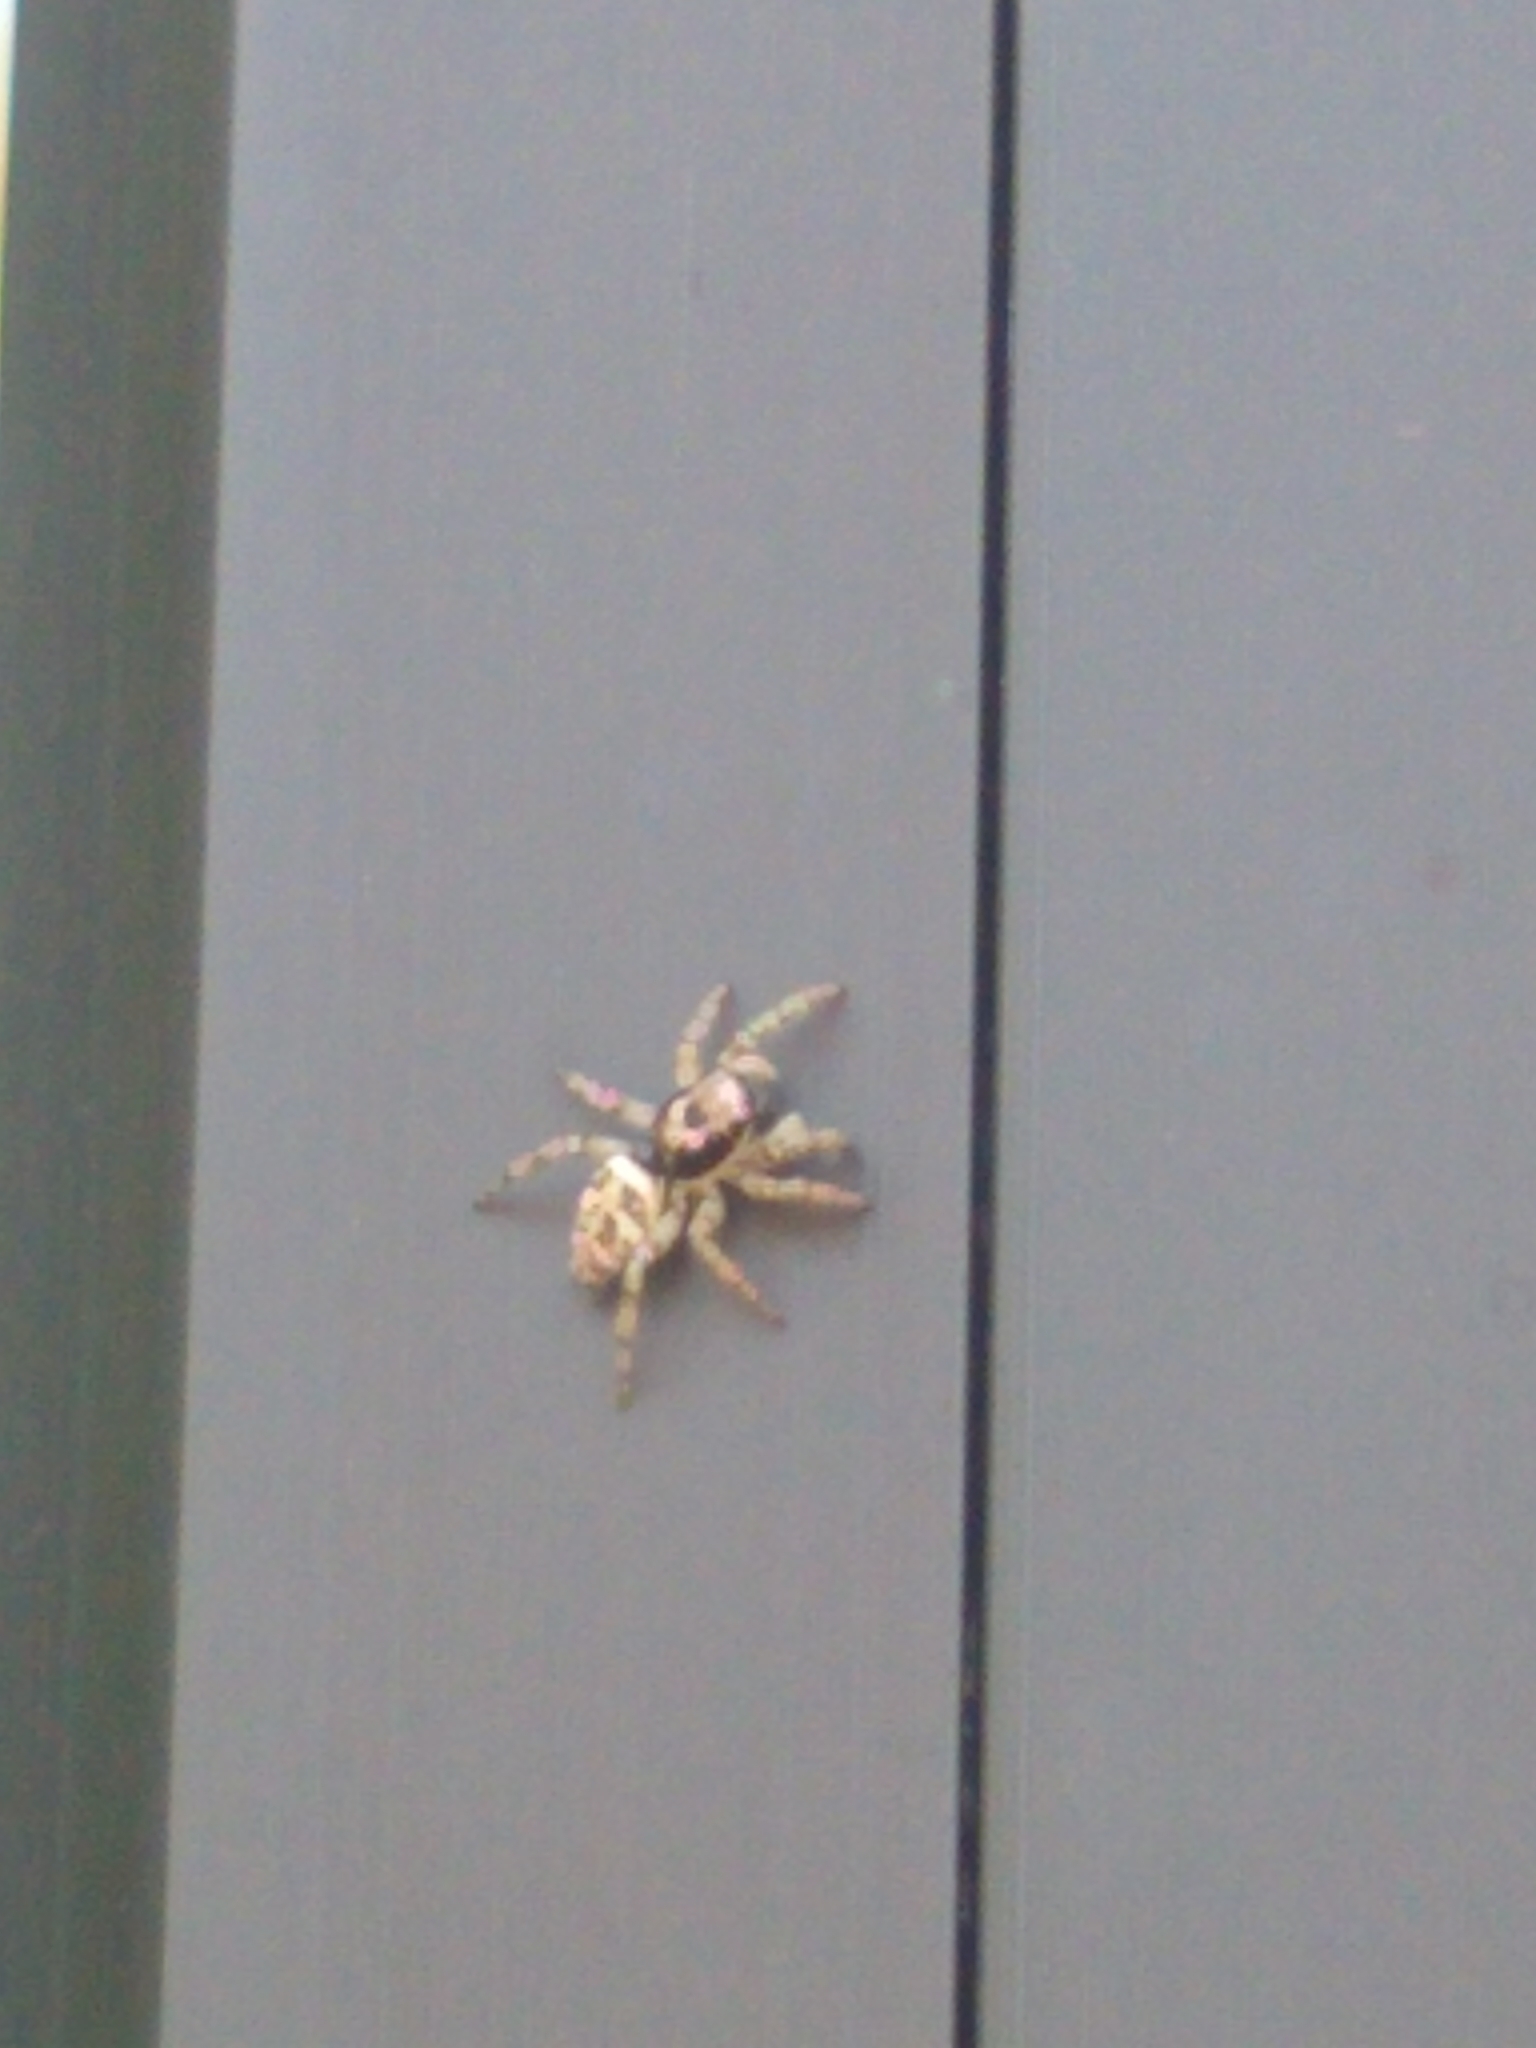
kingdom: Animalia
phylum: Arthropoda
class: Arachnida
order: Araneae
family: Salticidae
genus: Salticus
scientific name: Salticus scenicus
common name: Zebra jumper
